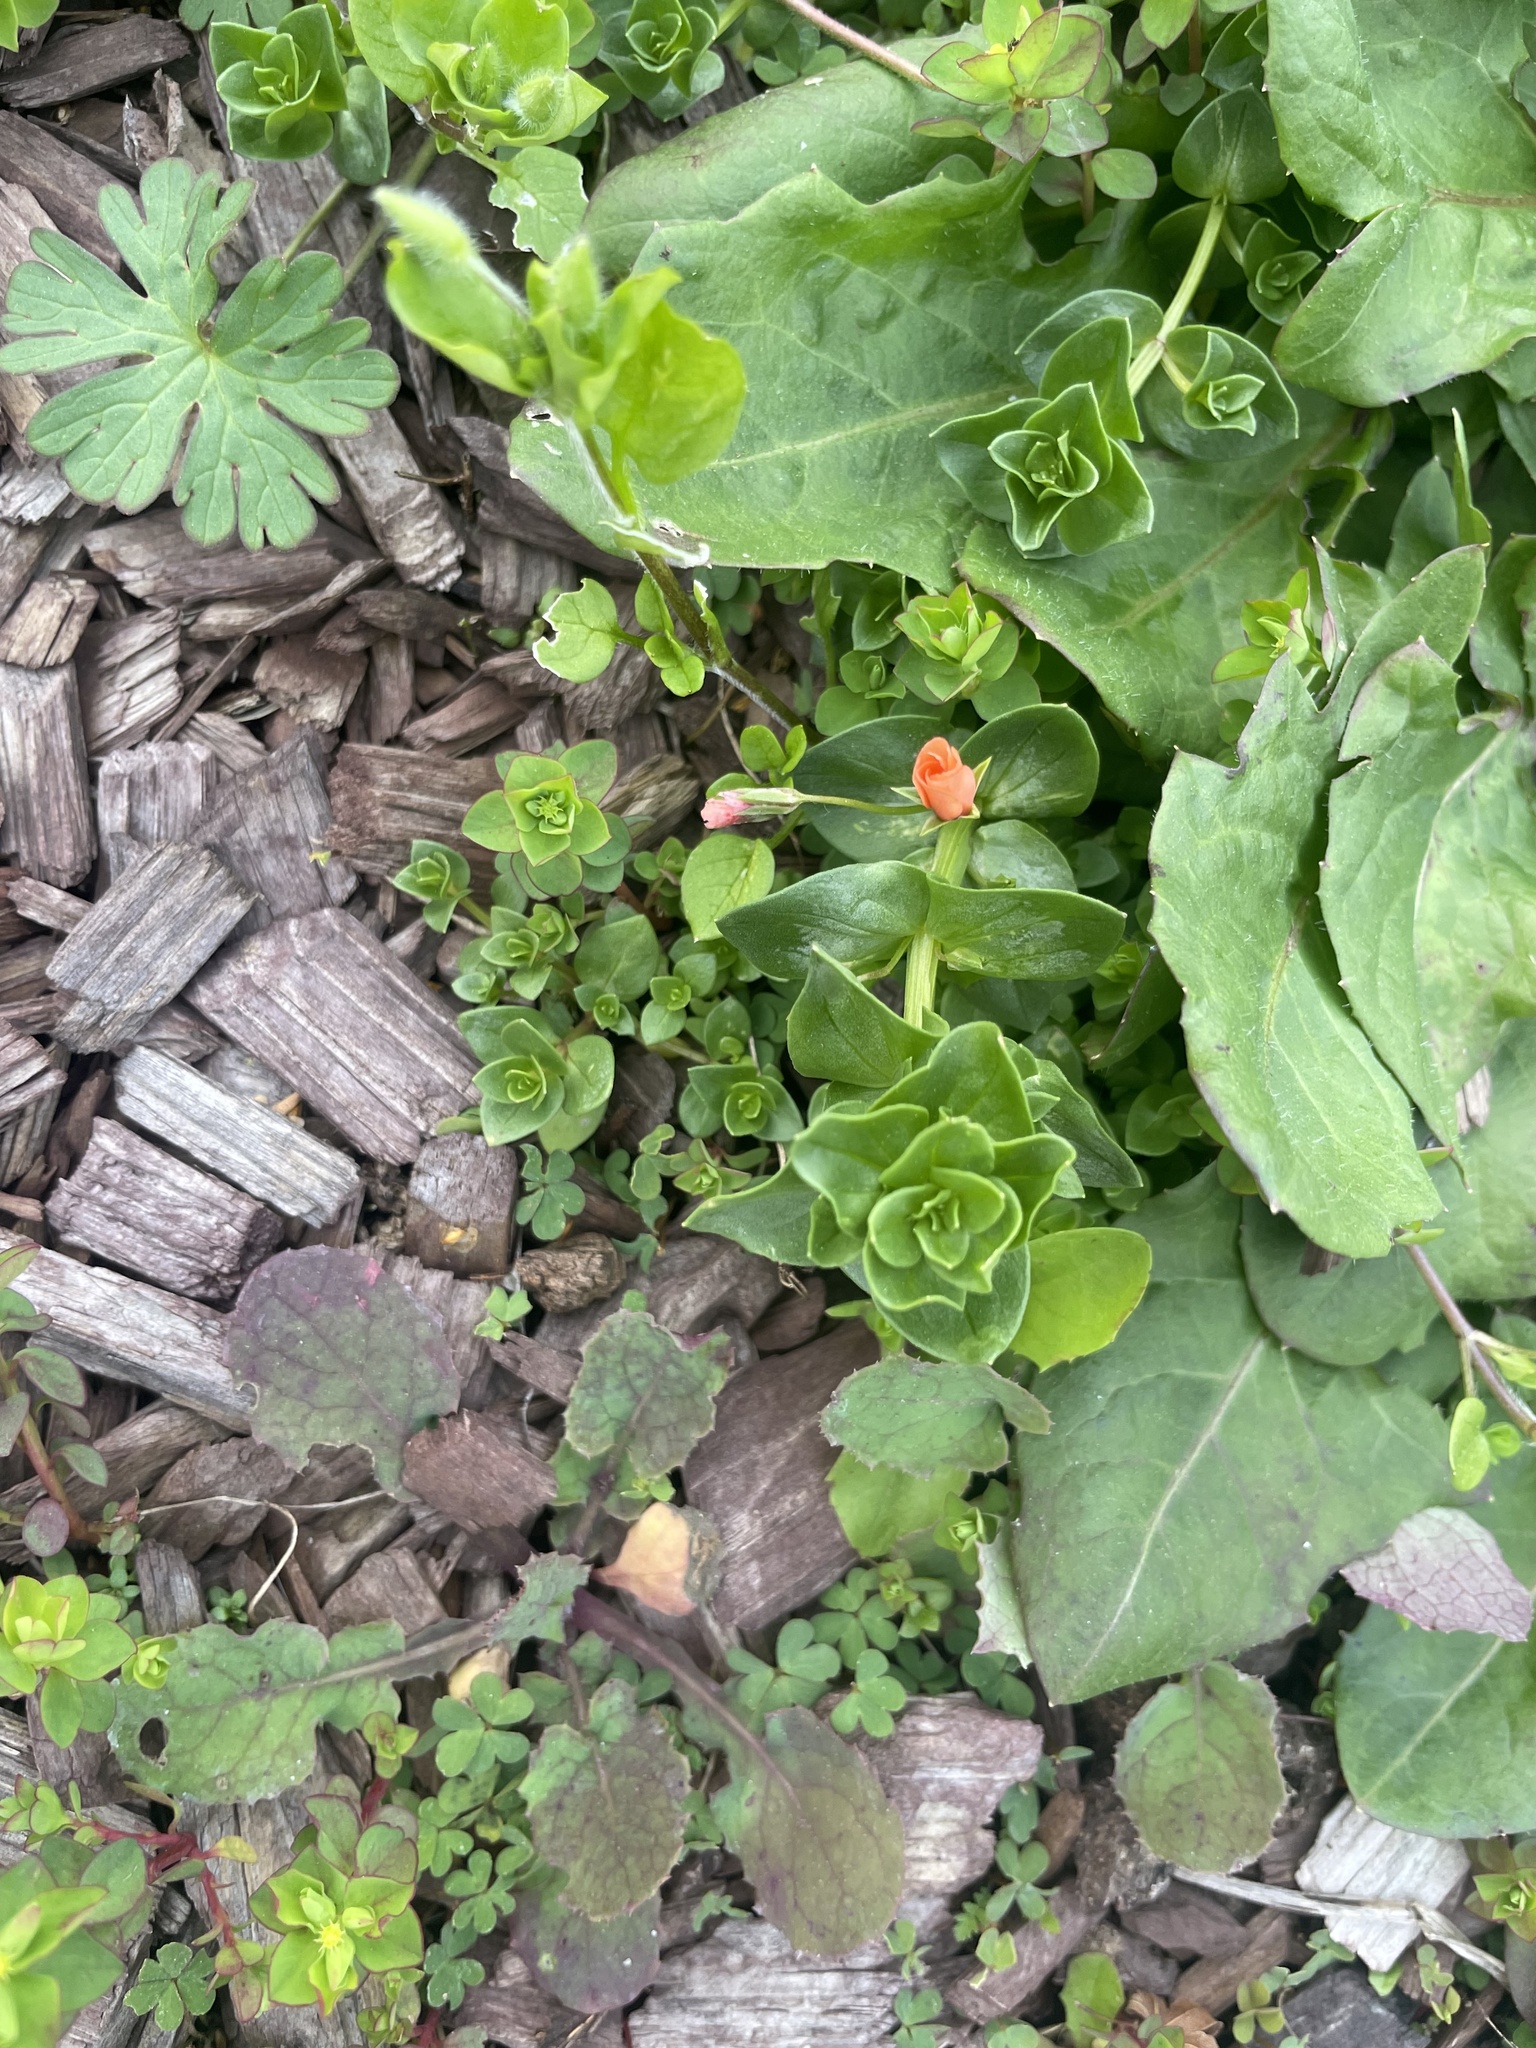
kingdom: Plantae
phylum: Tracheophyta
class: Magnoliopsida
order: Ericales
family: Primulaceae
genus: Lysimachia
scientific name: Lysimachia arvensis
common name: Scarlet pimpernel
